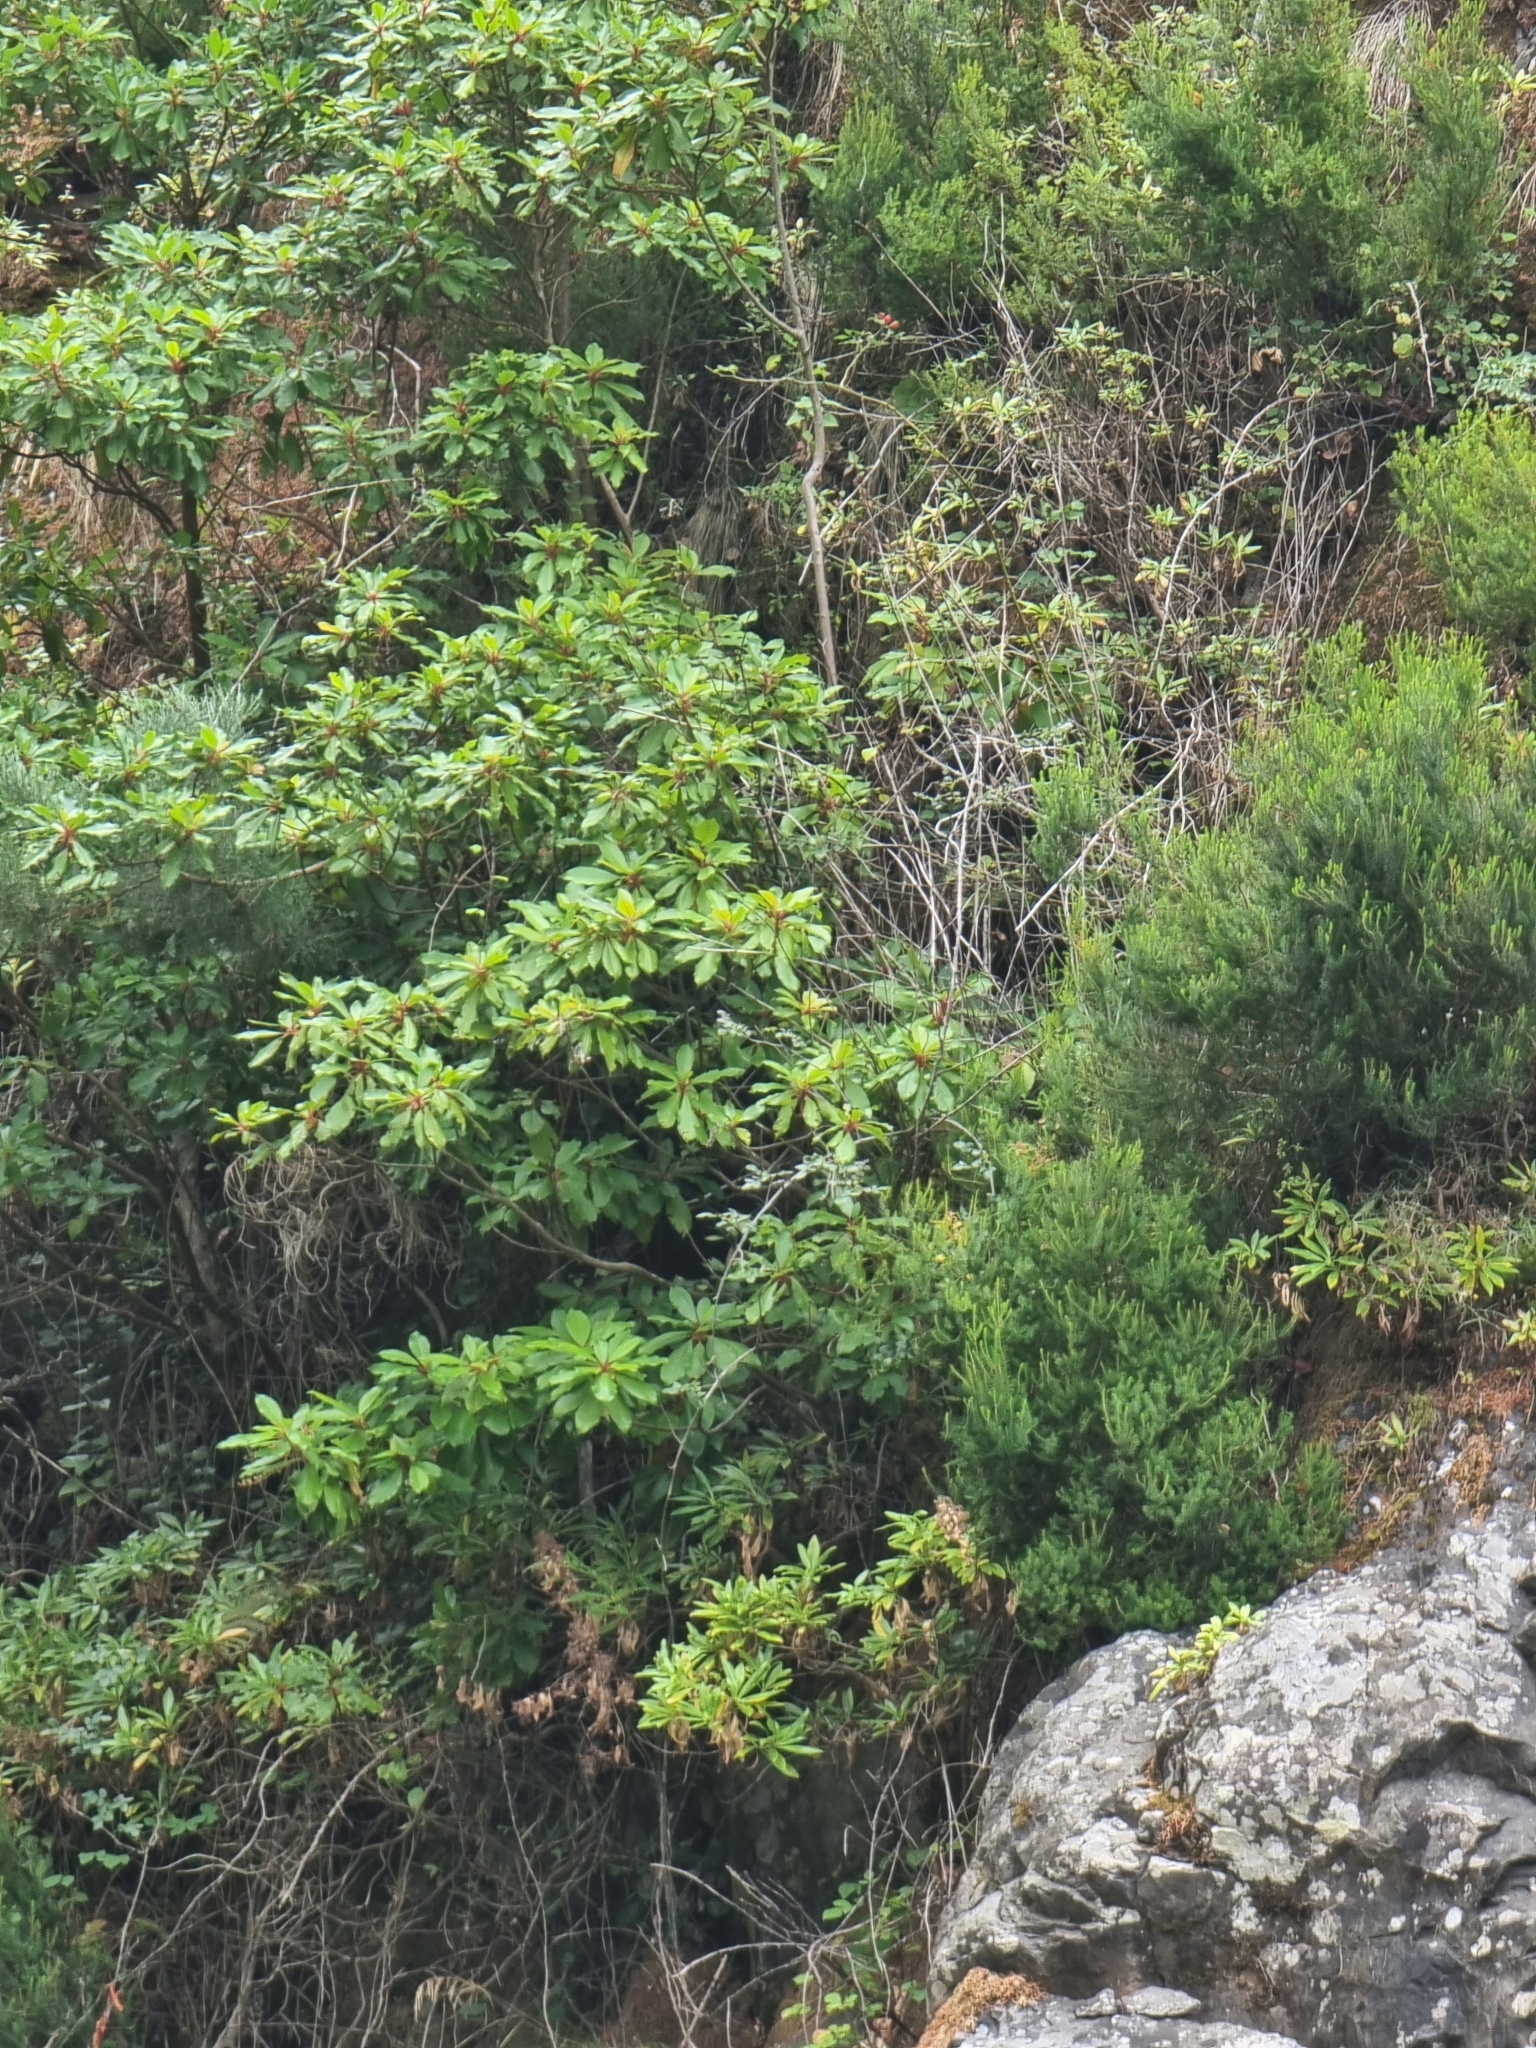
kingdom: Plantae
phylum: Tracheophyta
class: Magnoliopsida
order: Ericales
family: Clethraceae
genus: Clethra
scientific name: Clethra arborea
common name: Lily-of-the-valley-tree
